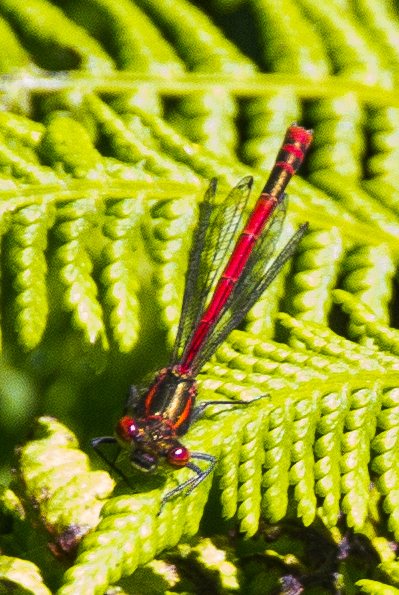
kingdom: Animalia
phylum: Arthropoda
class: Insecta
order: Odonata
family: Coenagrionidae
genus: Pyrrhosoma
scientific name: Pyrrhosoma nymphula
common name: Large red damsel
